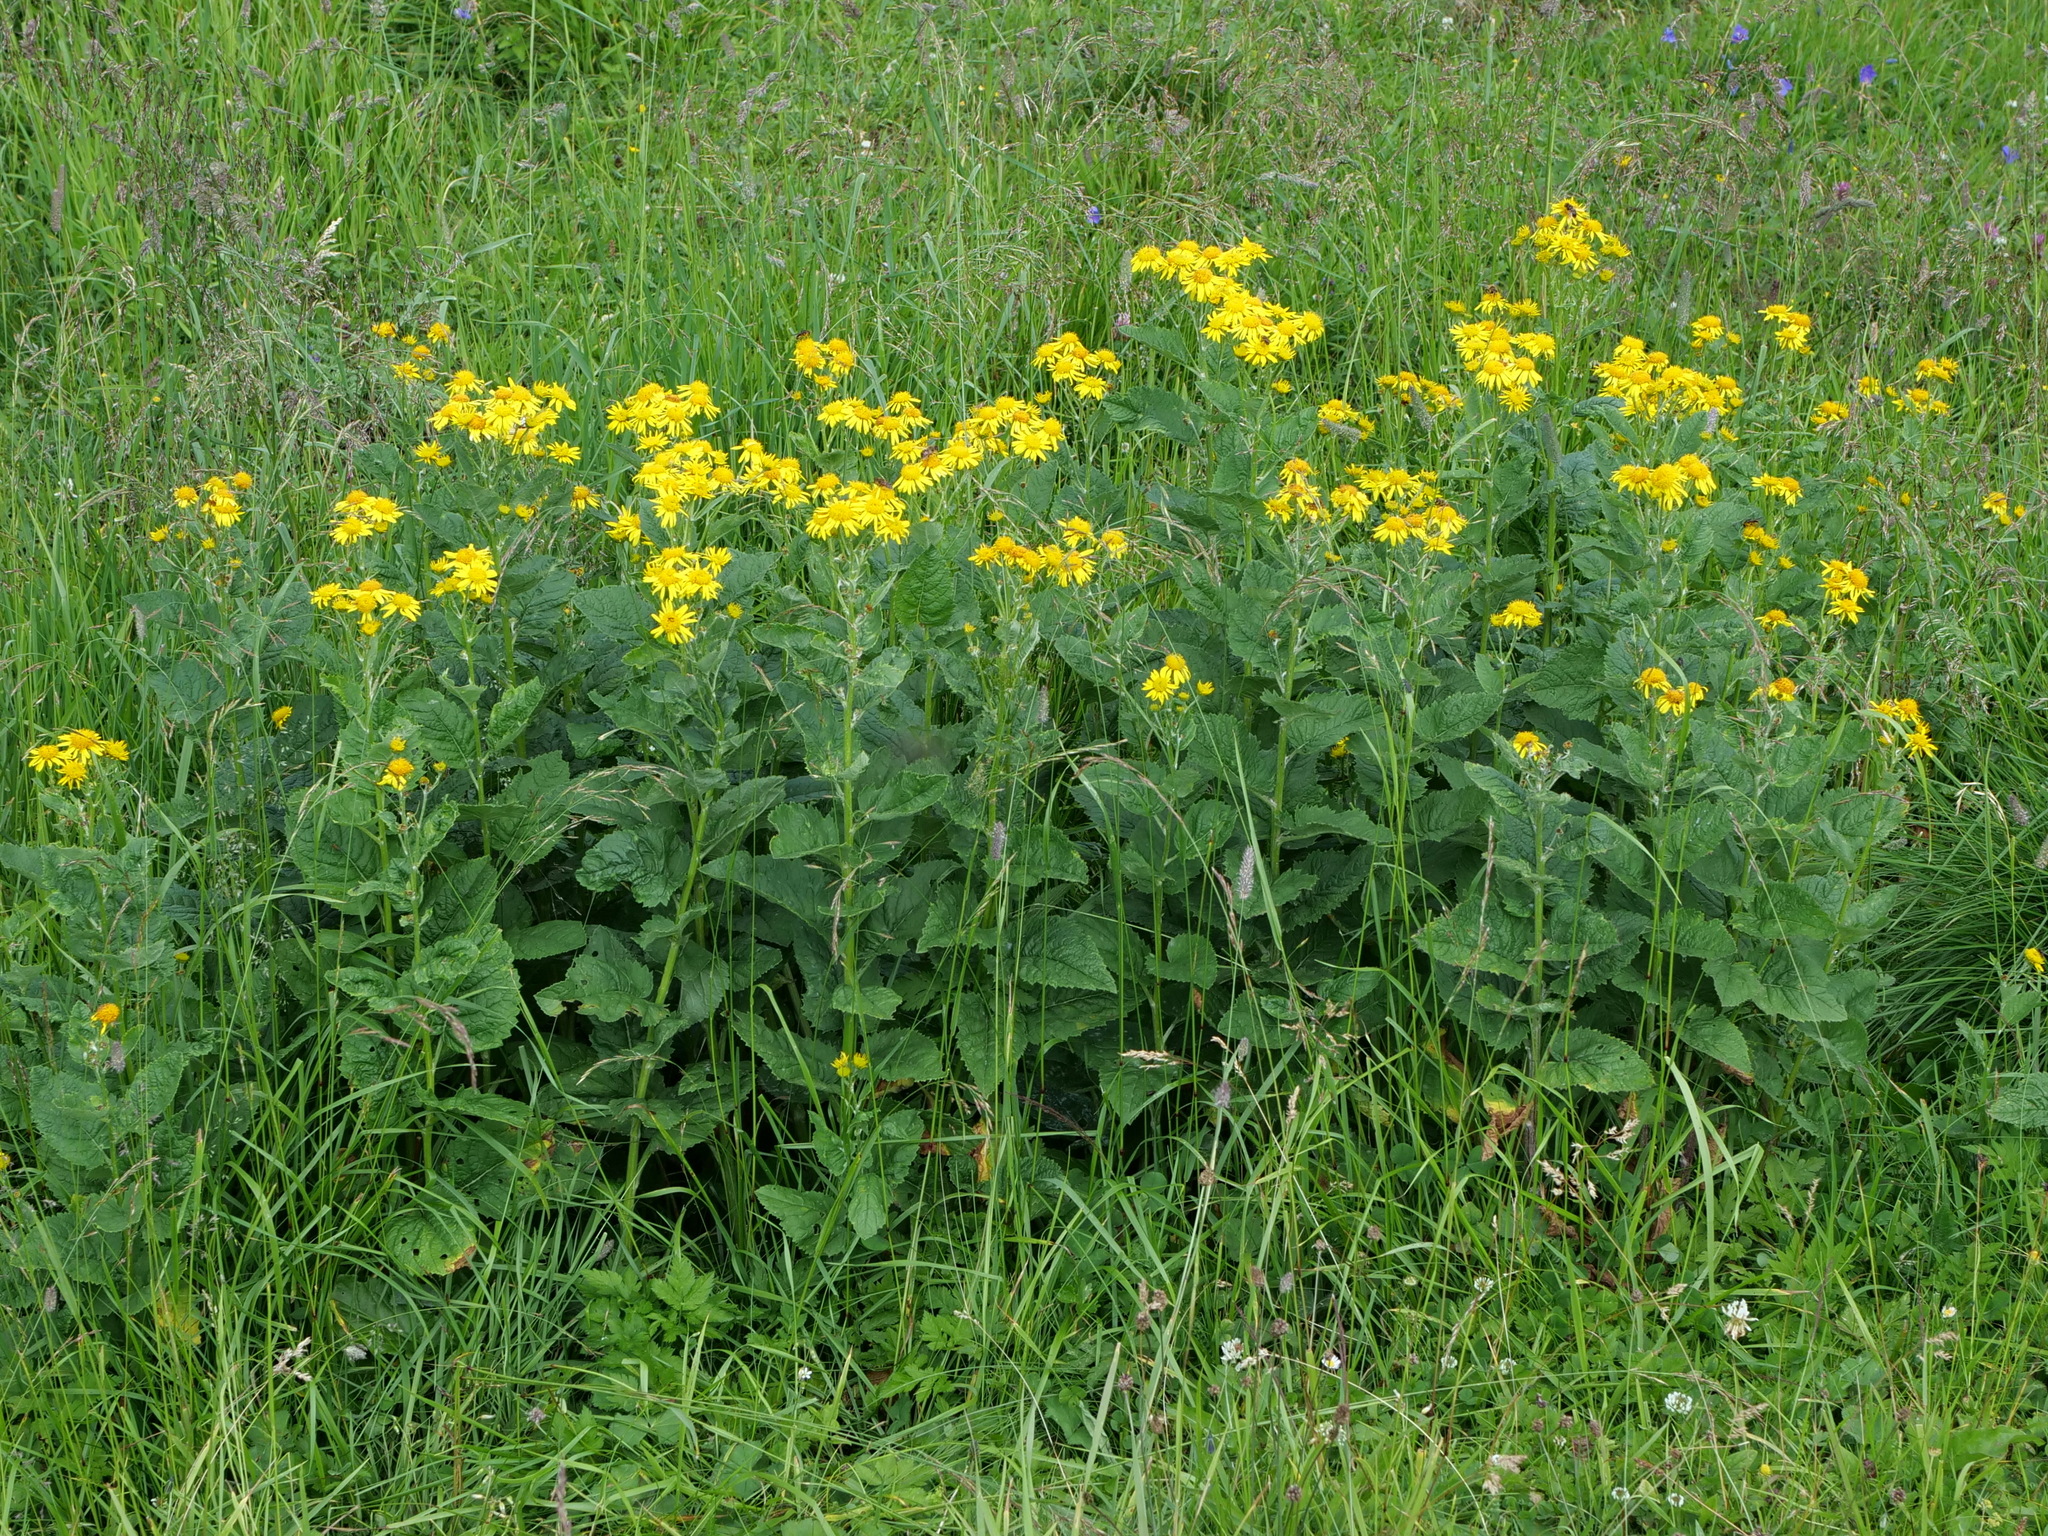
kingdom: Plantae
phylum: Tracheophyta
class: Magnoliopsida
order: Asterales
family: Asteraceae
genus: Jacobaea
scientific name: Jacobaea alpina
